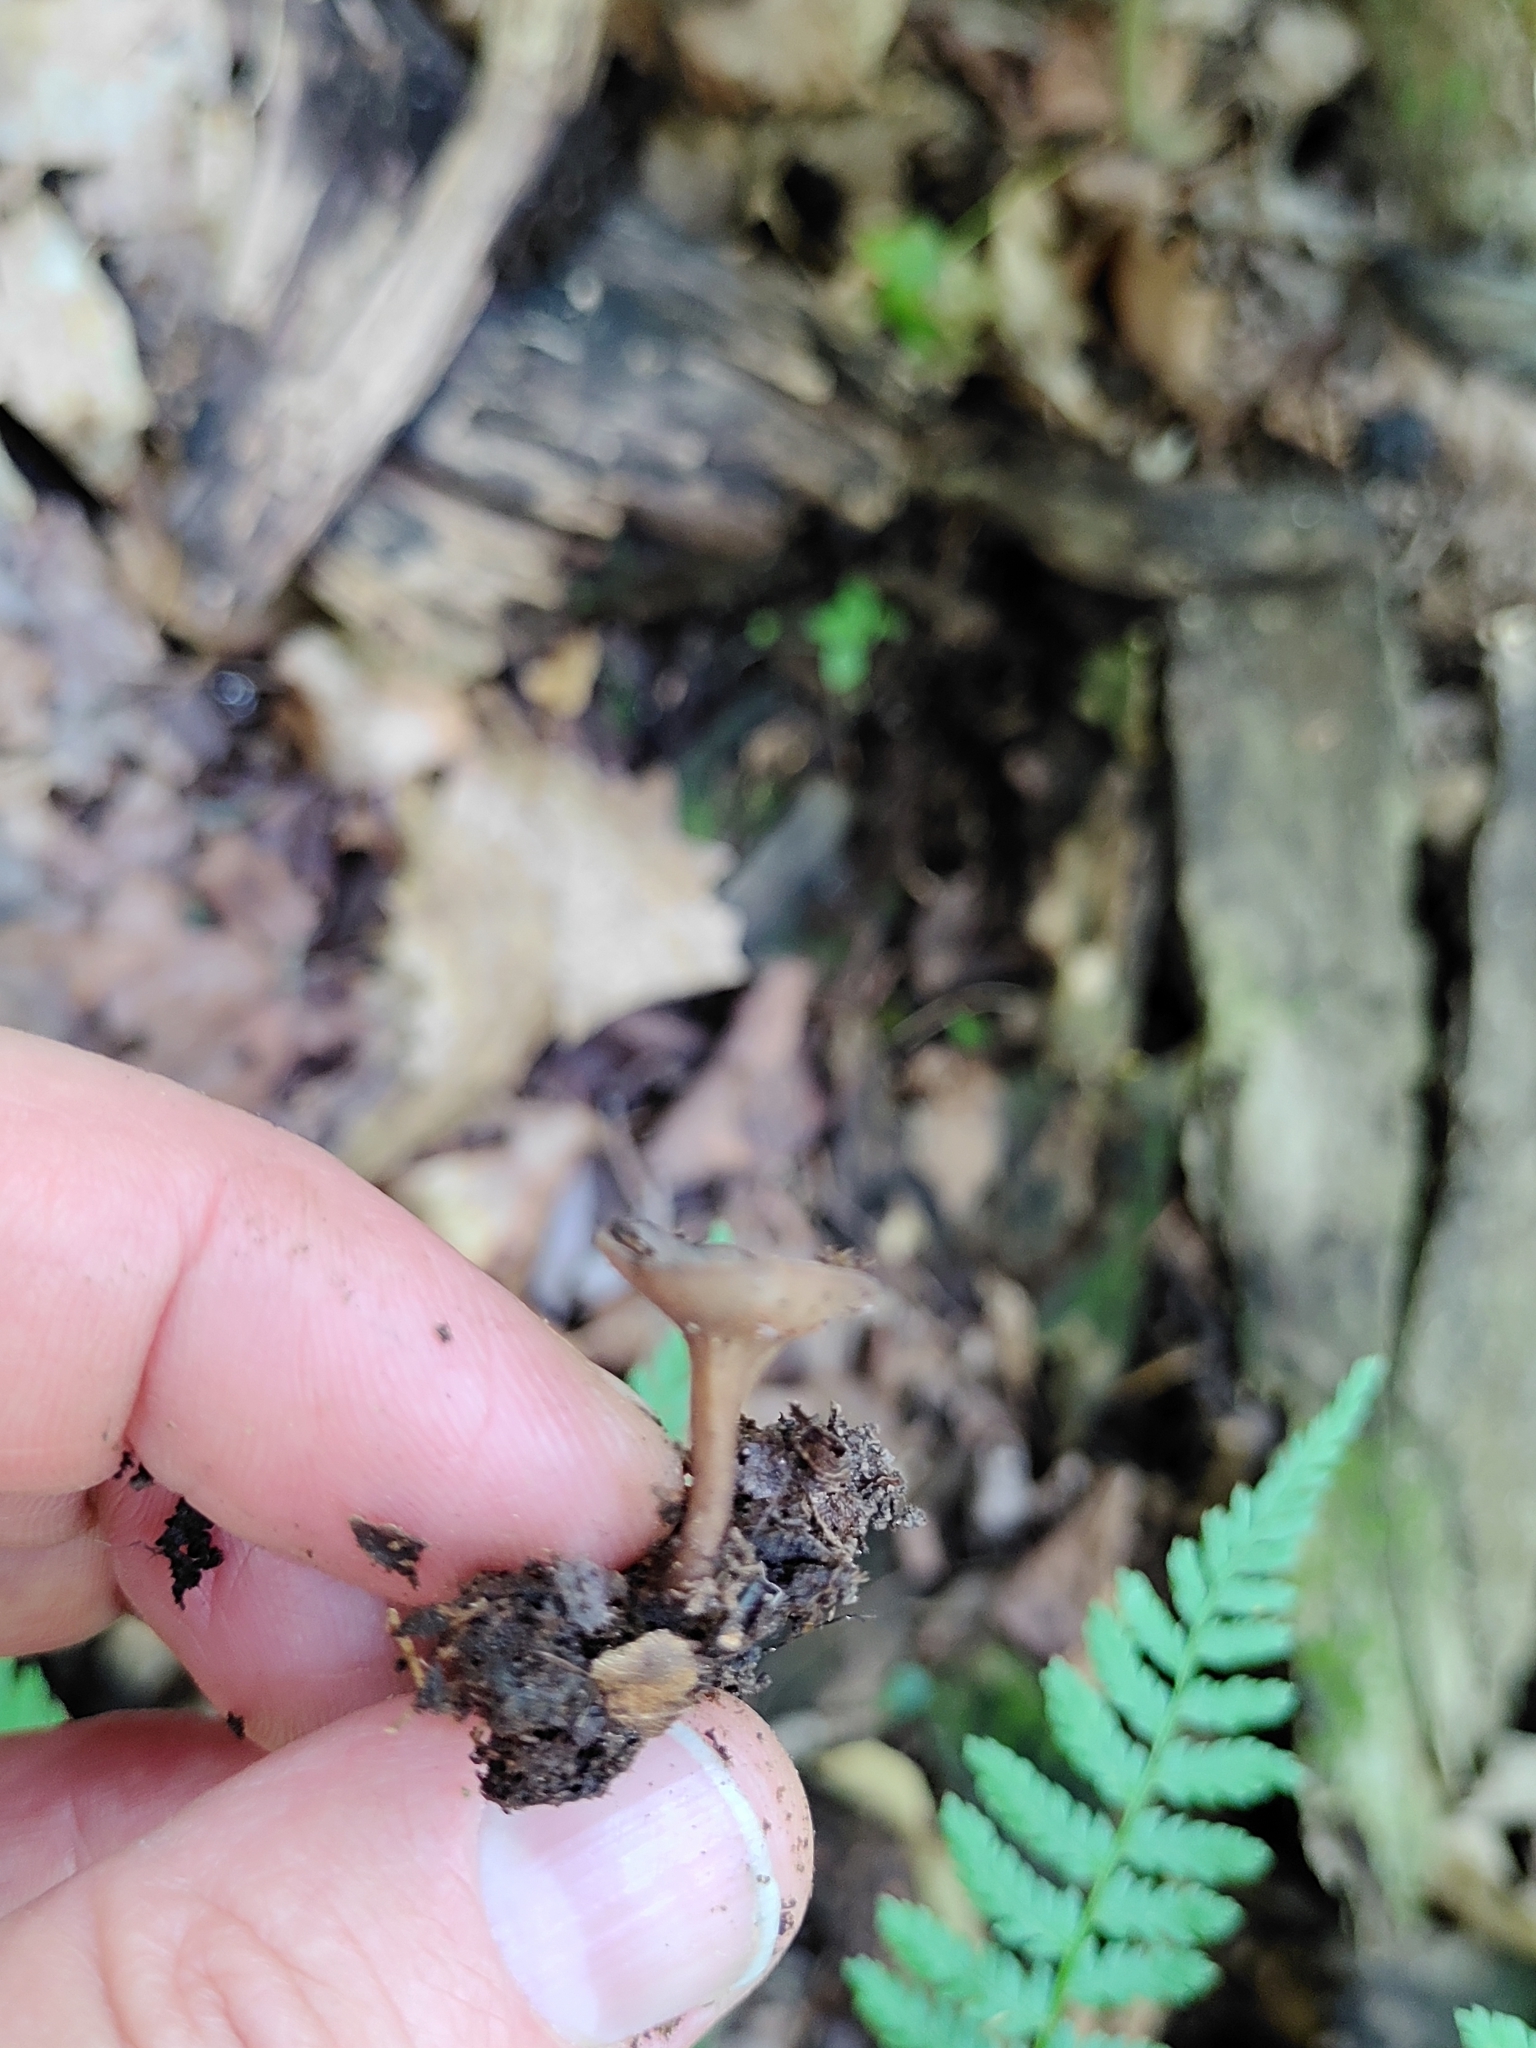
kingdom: Fungi
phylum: Ascomycota
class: Leotiomycetes
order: Helotiales
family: Helotiaceae
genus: Tatraea
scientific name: Tatraea macrospora
